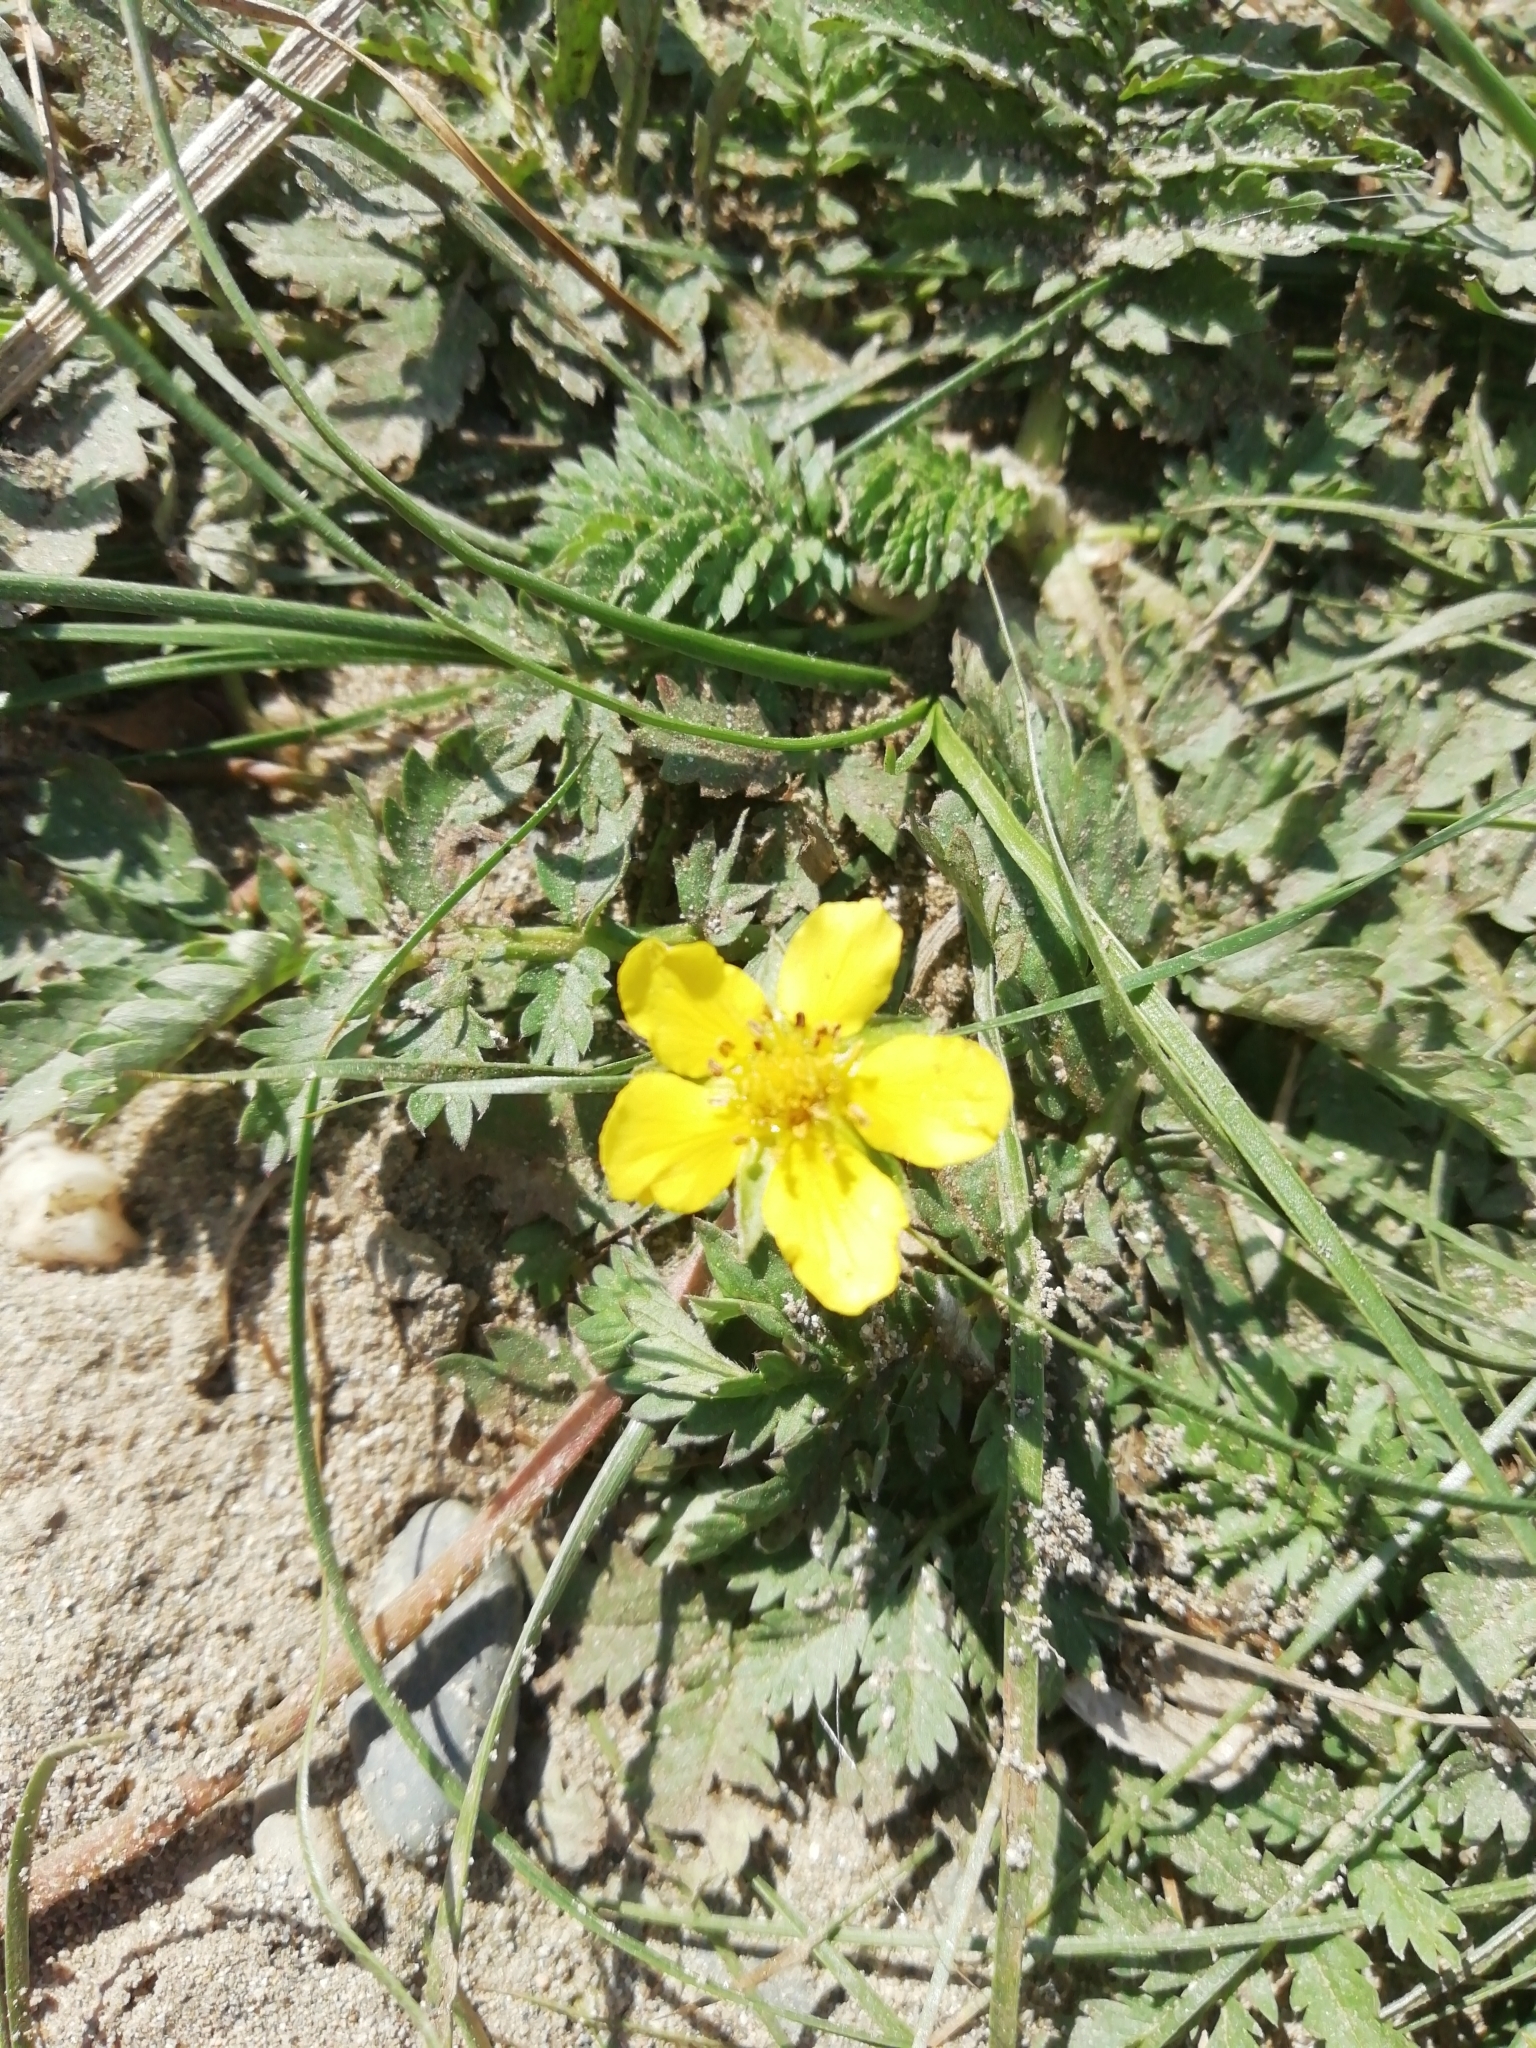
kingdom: Plantae
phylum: Tracheophyta
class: Magnoliopsida
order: Rosales
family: Rosaceae
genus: Argentina
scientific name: Argentina anserina
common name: Common silverweed
